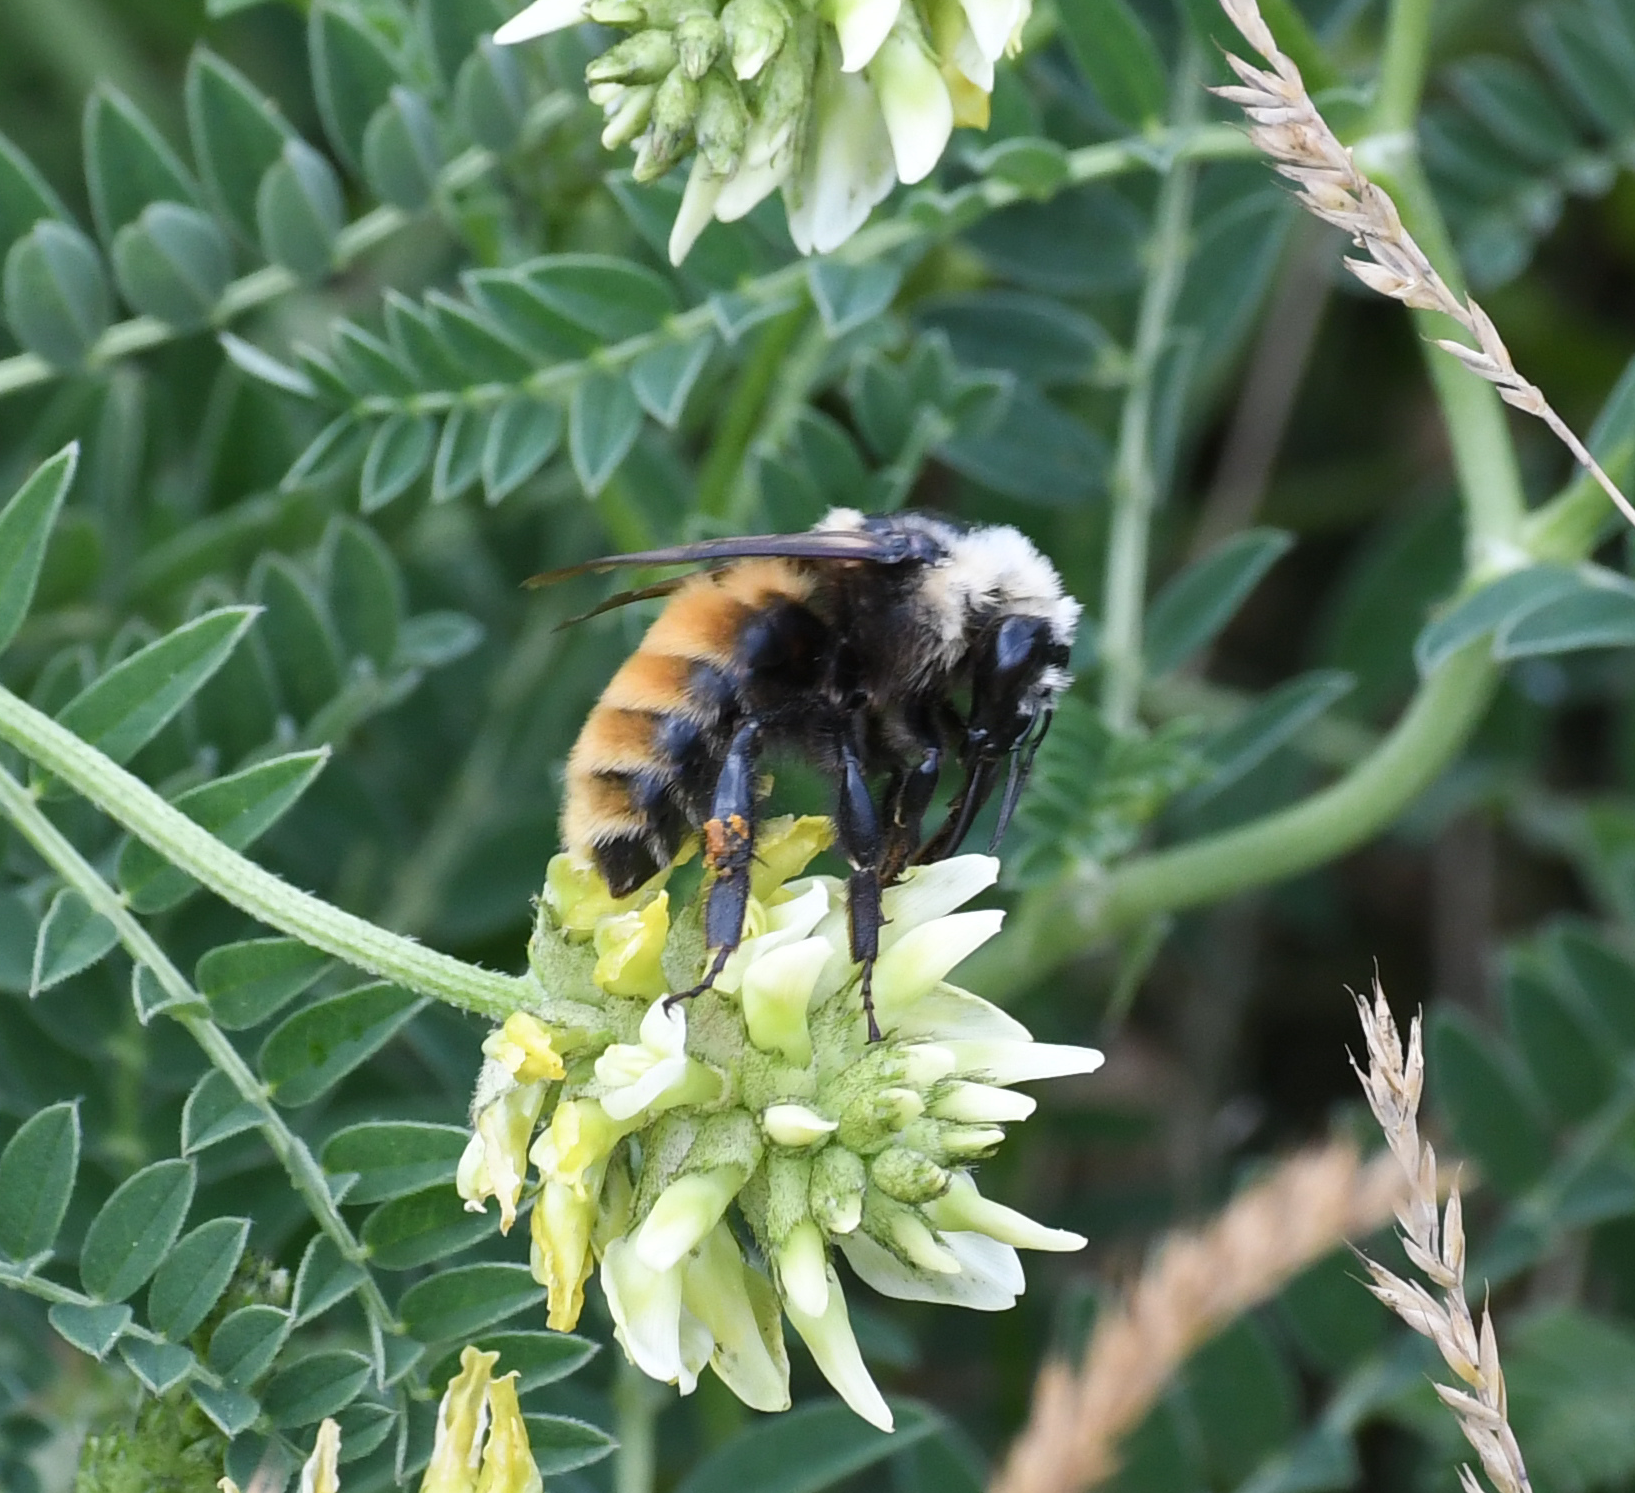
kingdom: Animalia
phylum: Arthropoda
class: Insecta
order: Hymenoptera
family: Apidae
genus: Bombus
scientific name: Bombus appositus
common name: White-shouldered bumble bee
